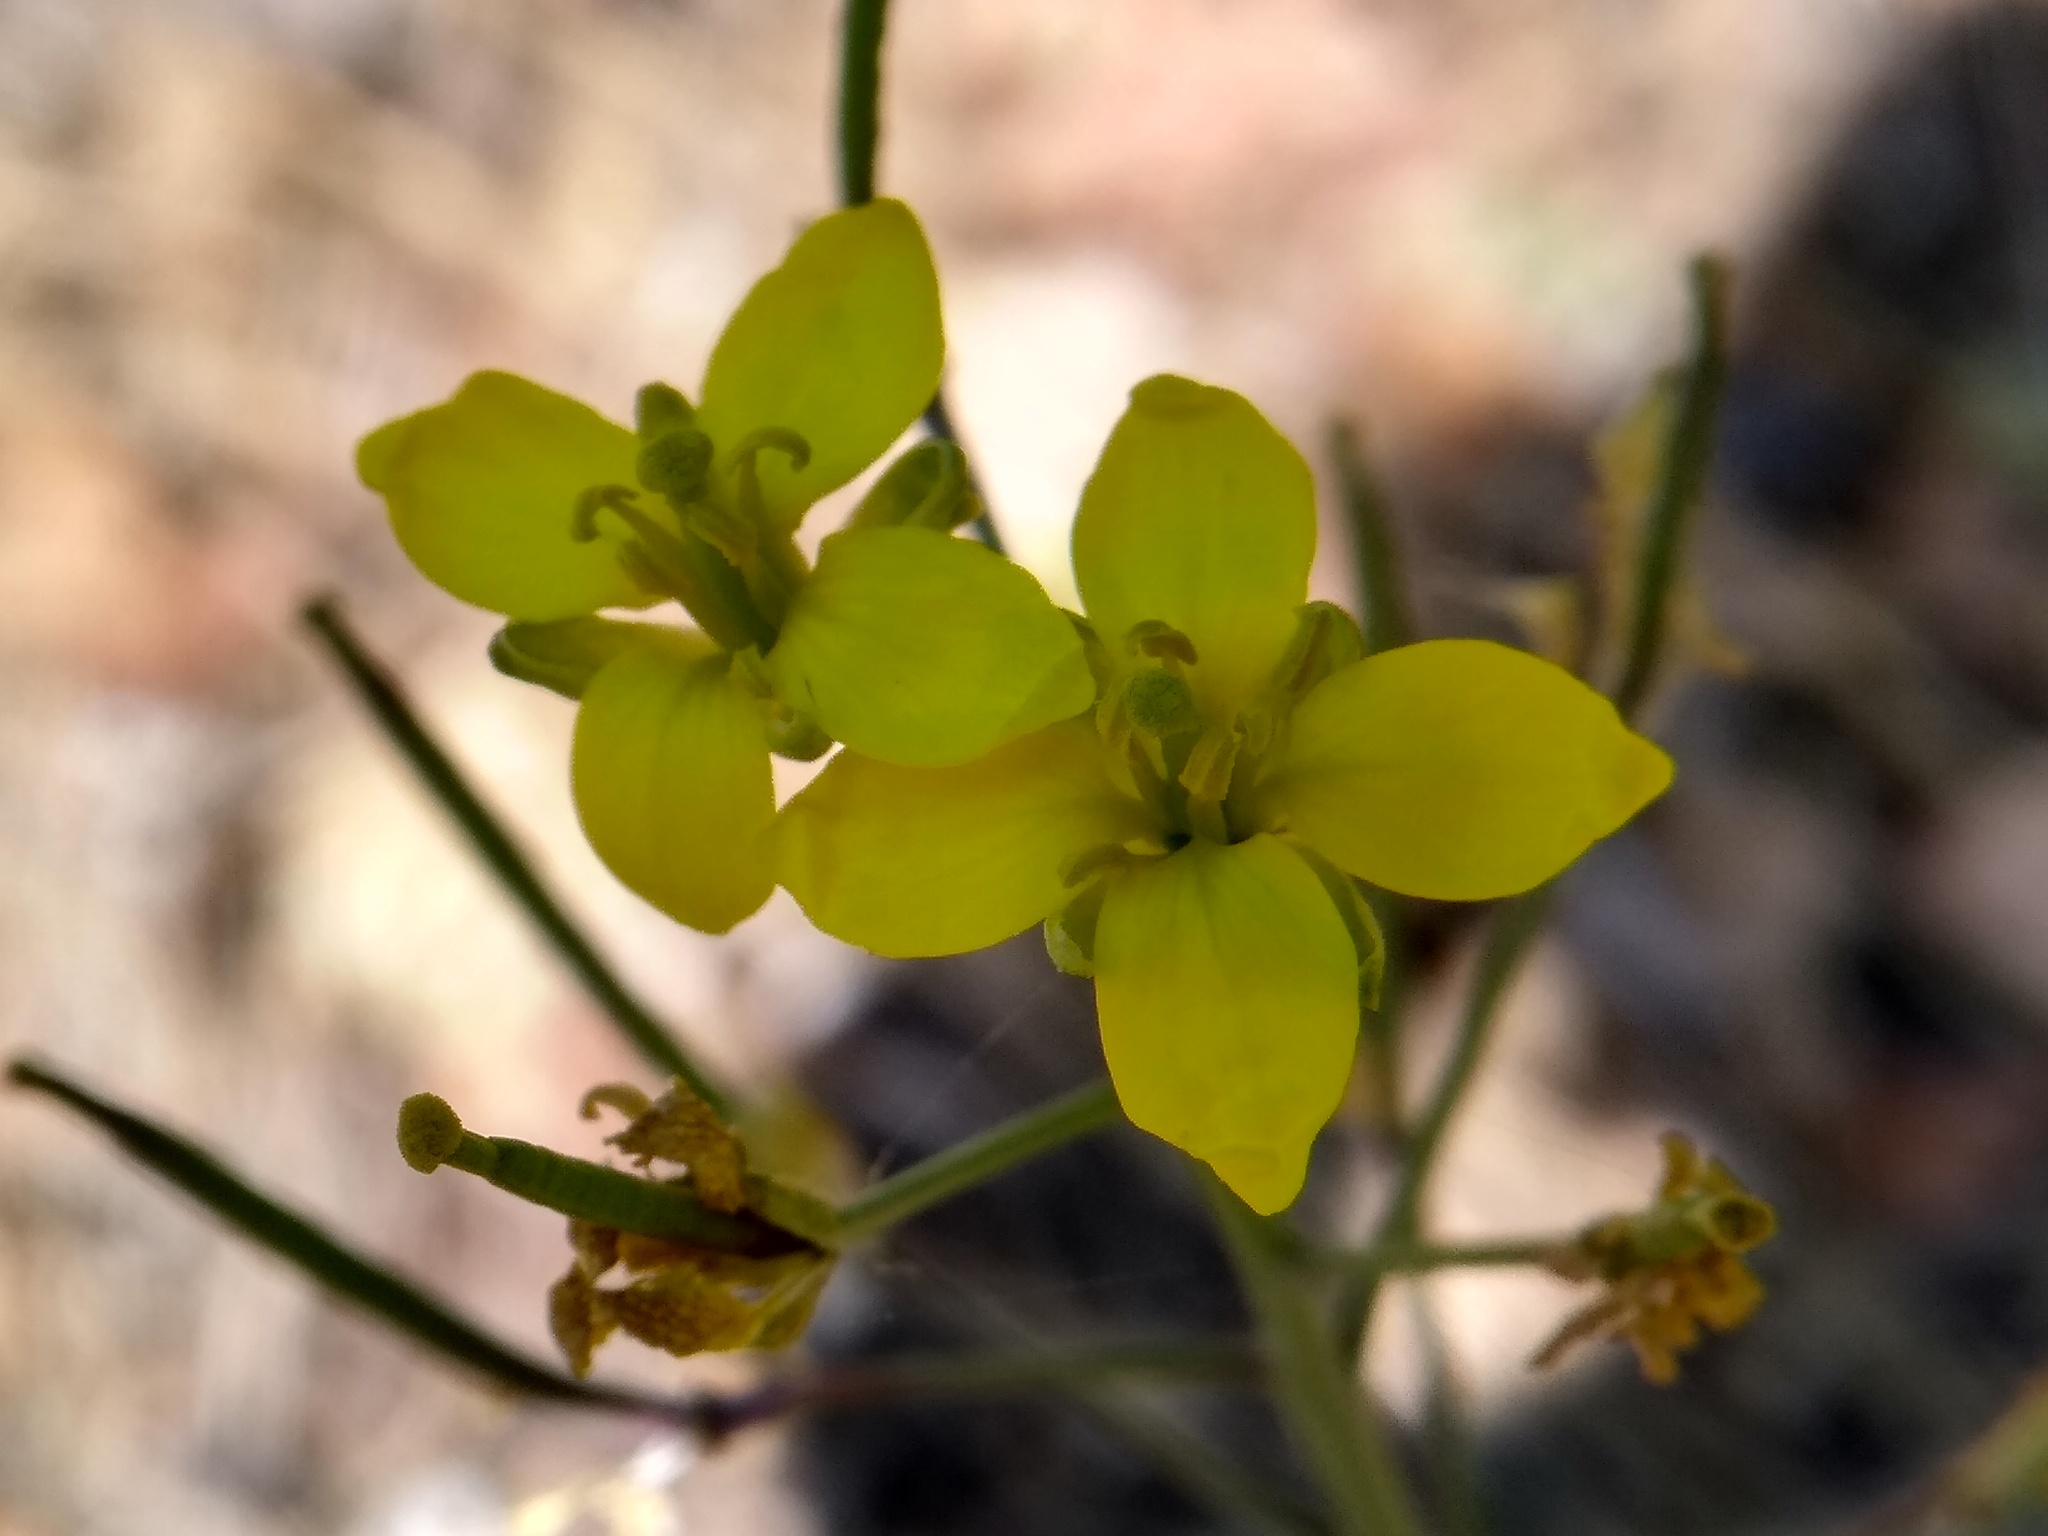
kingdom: Plantae
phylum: Tracheophyta
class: Magnoliopsida
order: Brassicales
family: Brassicaceae
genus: Diplotaxis
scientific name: Diplotaxis tenuifolia
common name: Perennial wall-rocket
